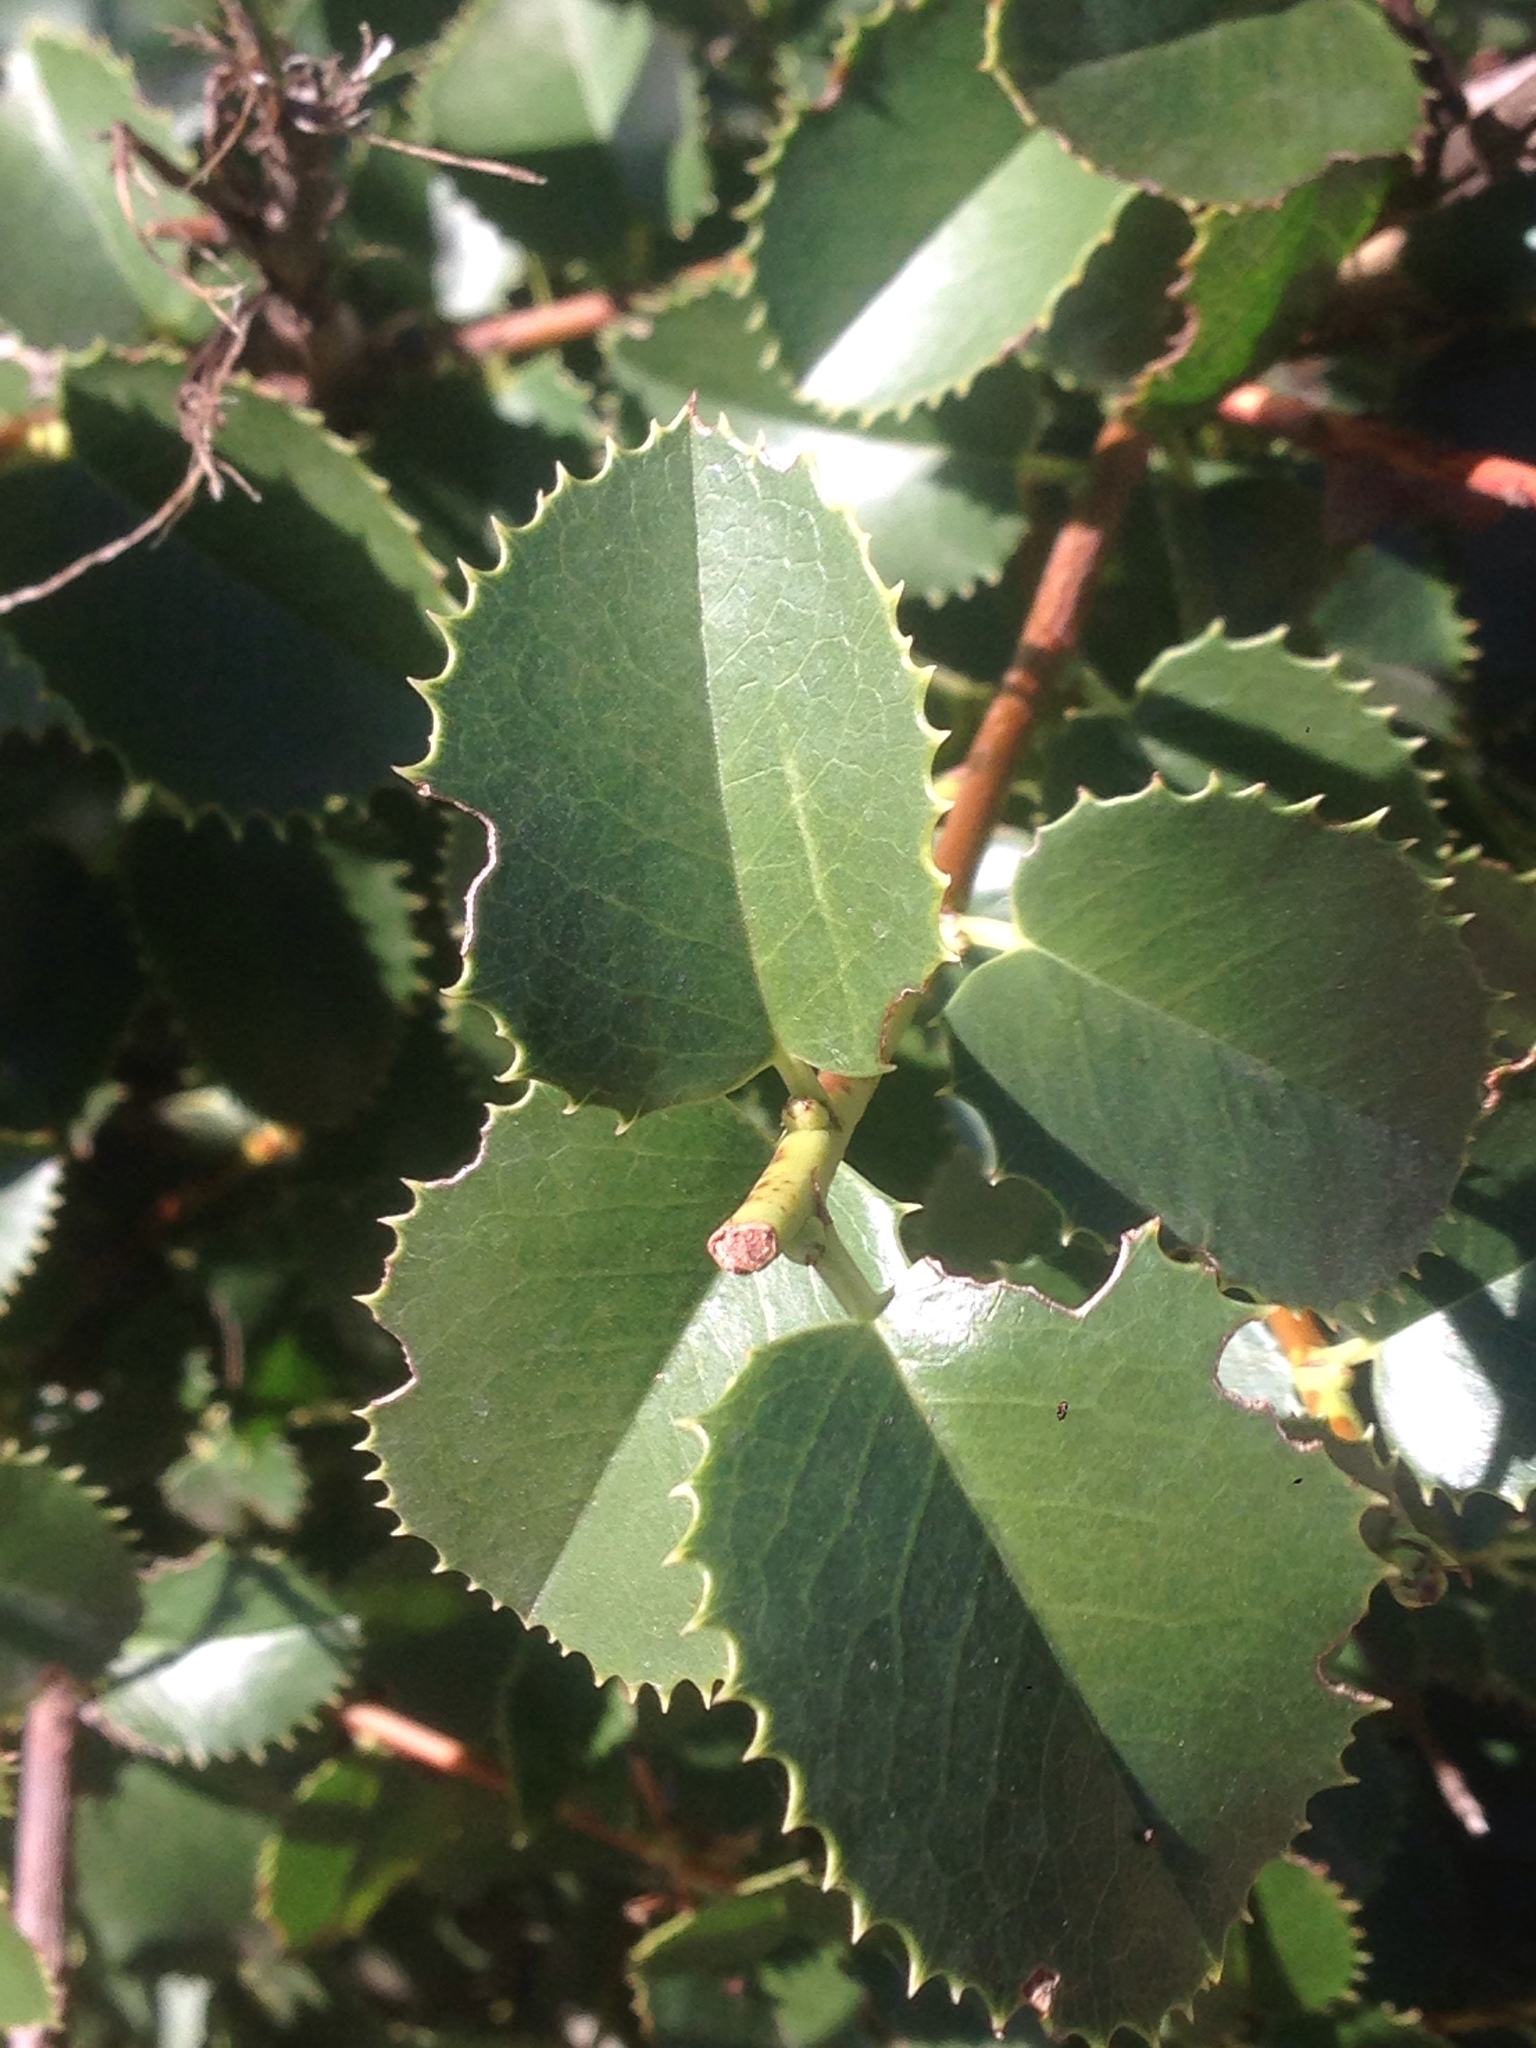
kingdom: Plantae
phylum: Tracheophyta
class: Magnoliopsida
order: Rosales
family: Rosaceae
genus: Prunus
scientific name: Prunus ilicifolia
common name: Hollyleaf cherry
